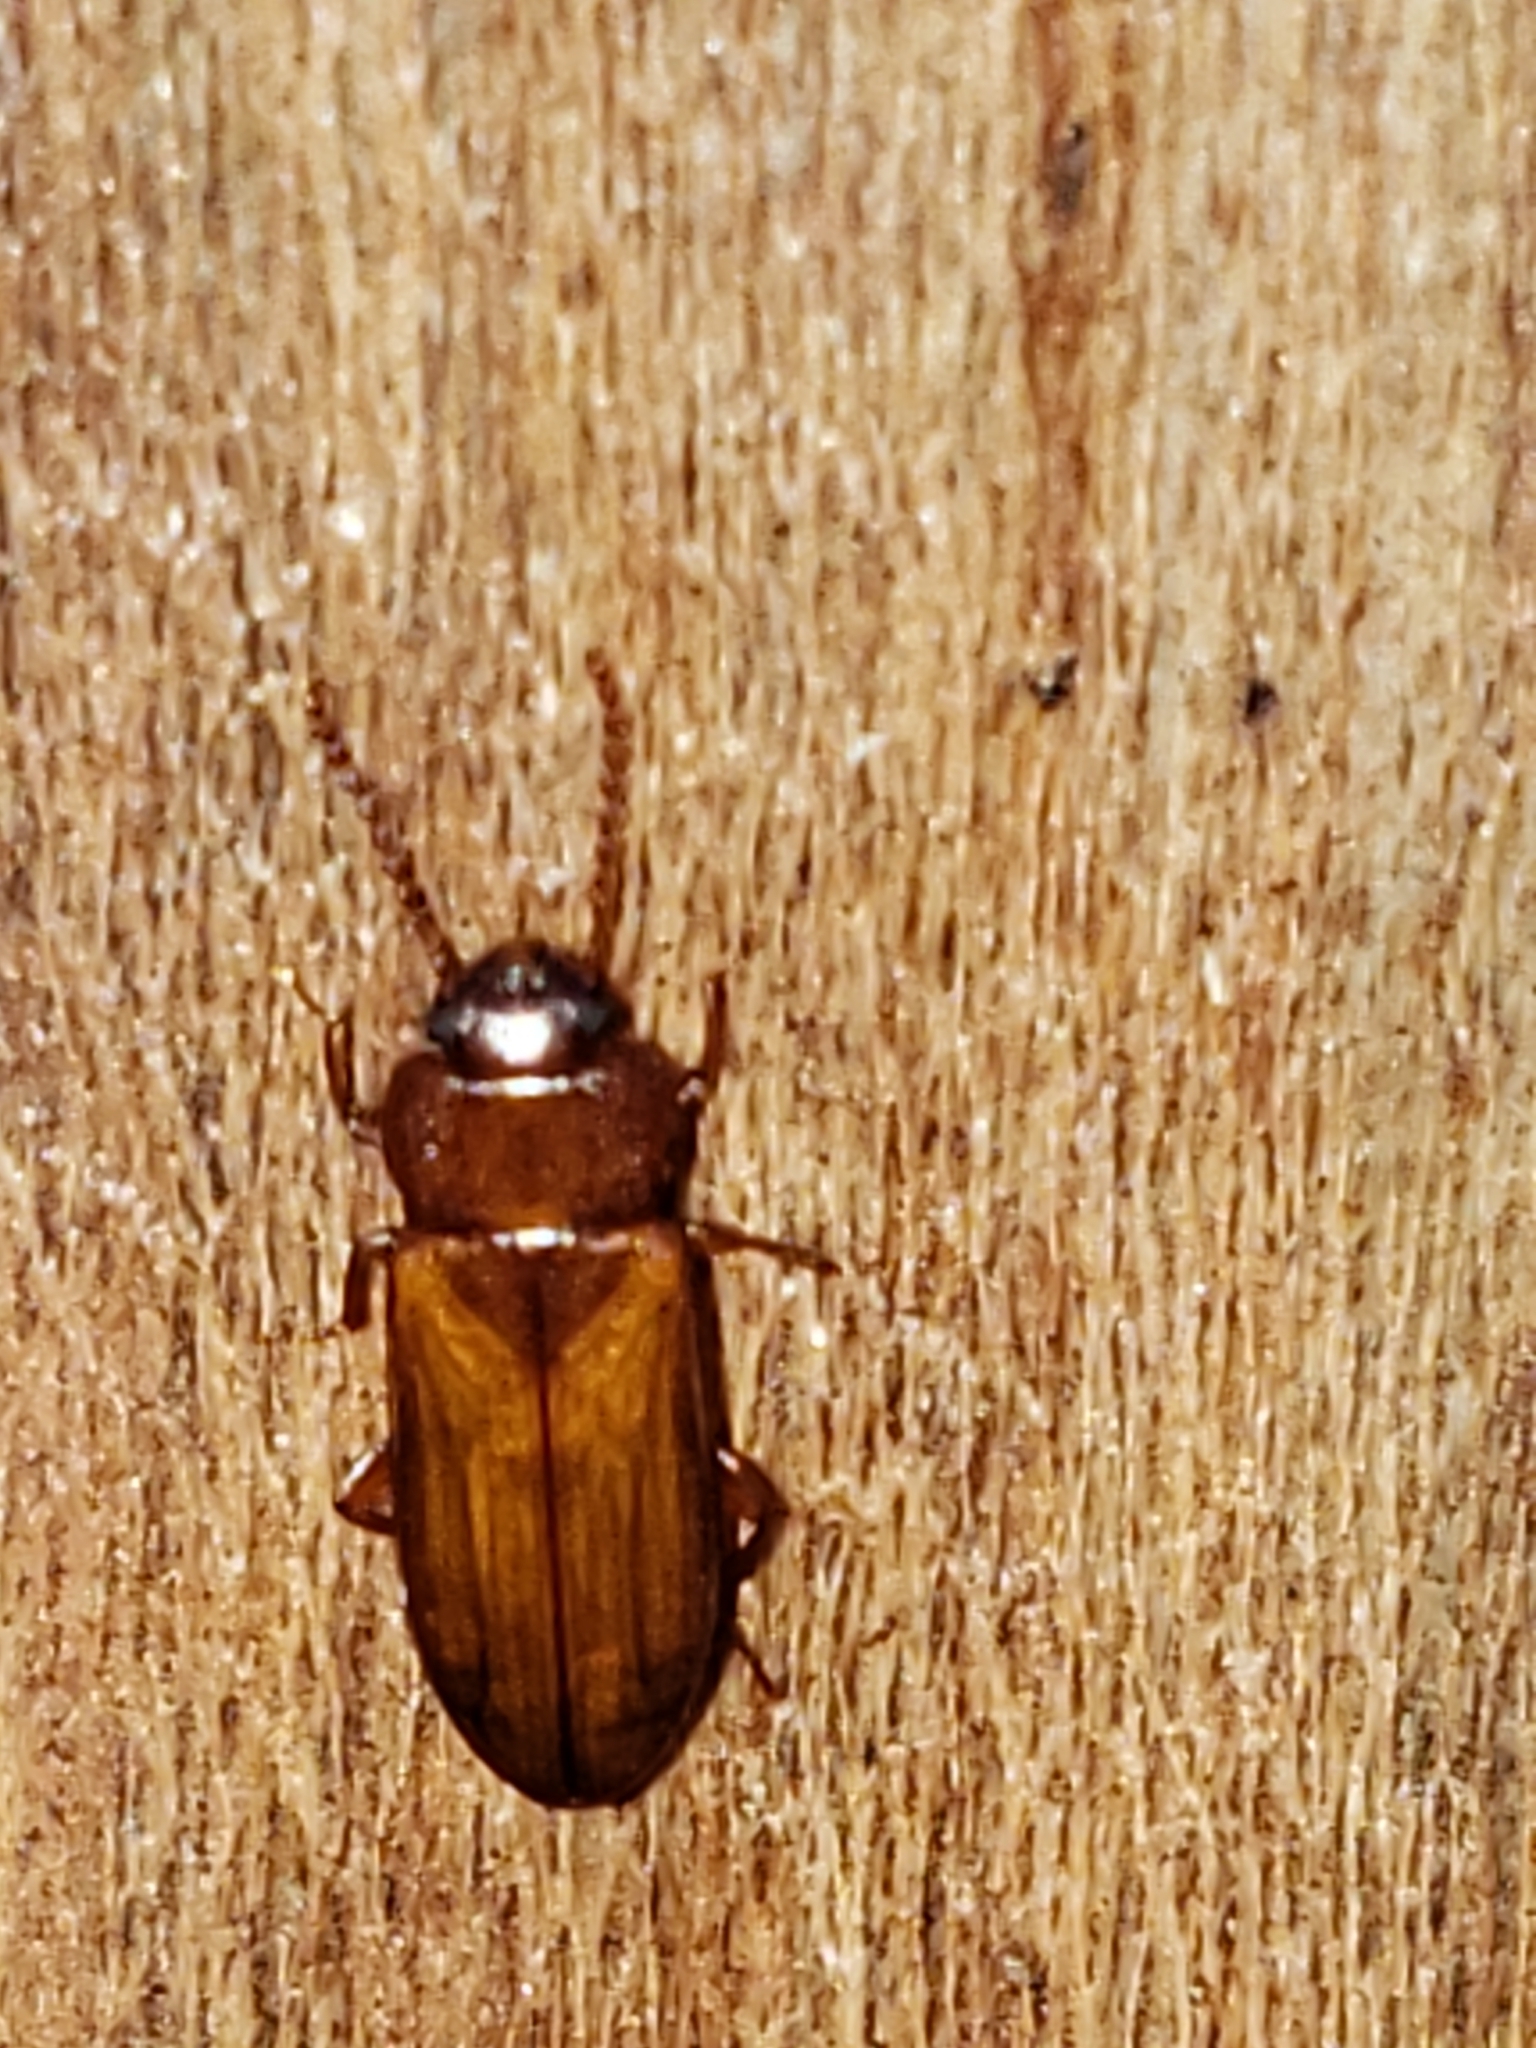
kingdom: Animalia
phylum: Arthropoda
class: Insecta
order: Coleoptera
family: Tenebrionidae
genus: Adelina
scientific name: Adelina pallida
